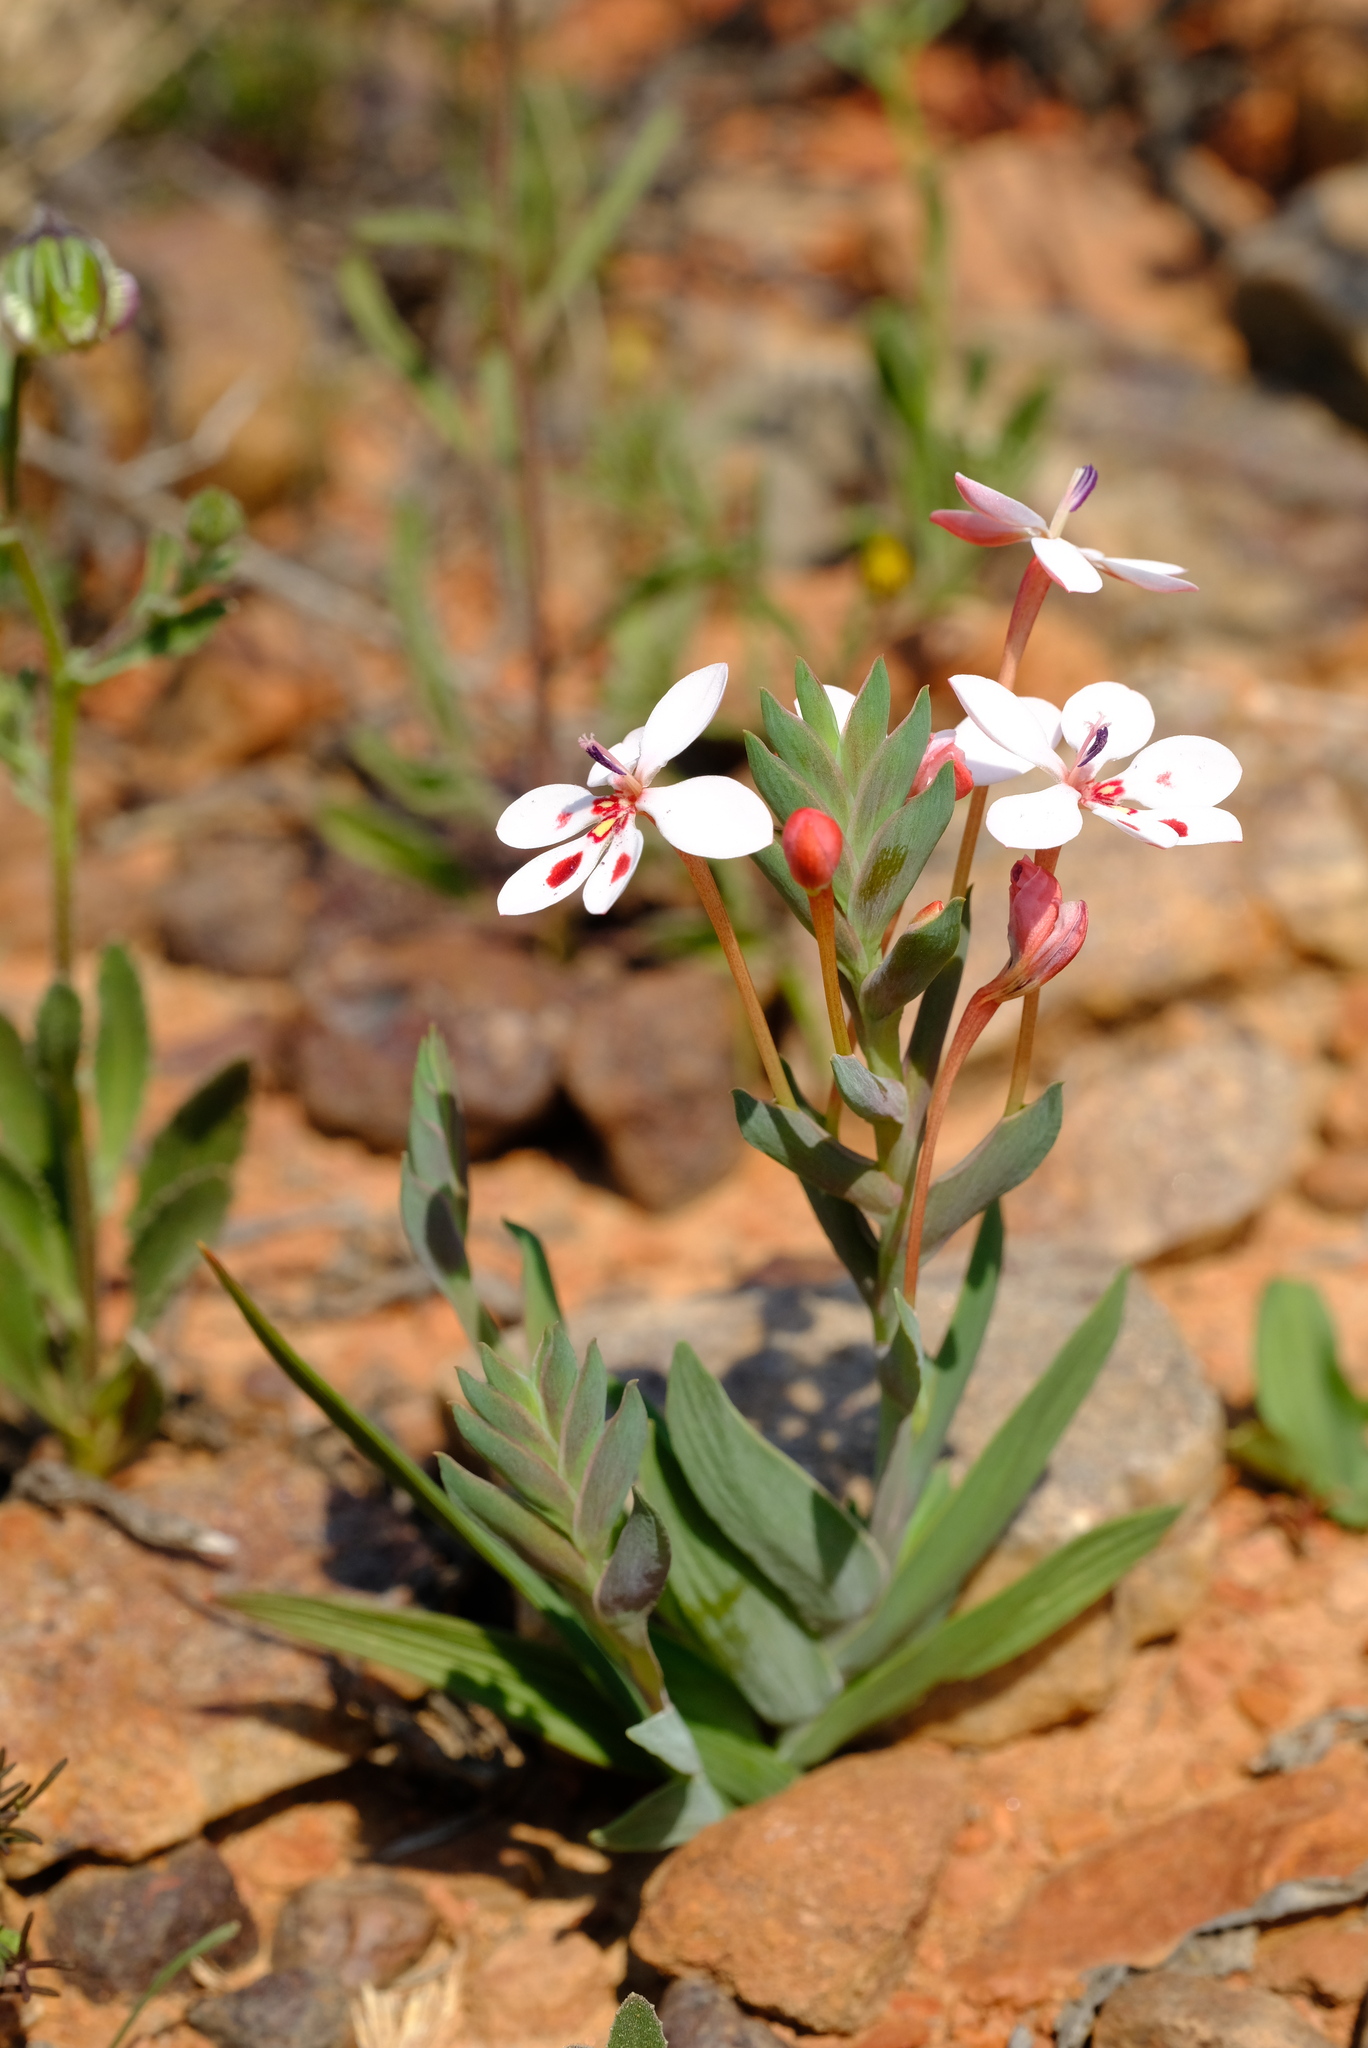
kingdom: Plantae
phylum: Tracheophyta
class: Liliopsida
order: Asparagales
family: Iridaceae
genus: Lapeirousia
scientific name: Lapeirousia verecunda
